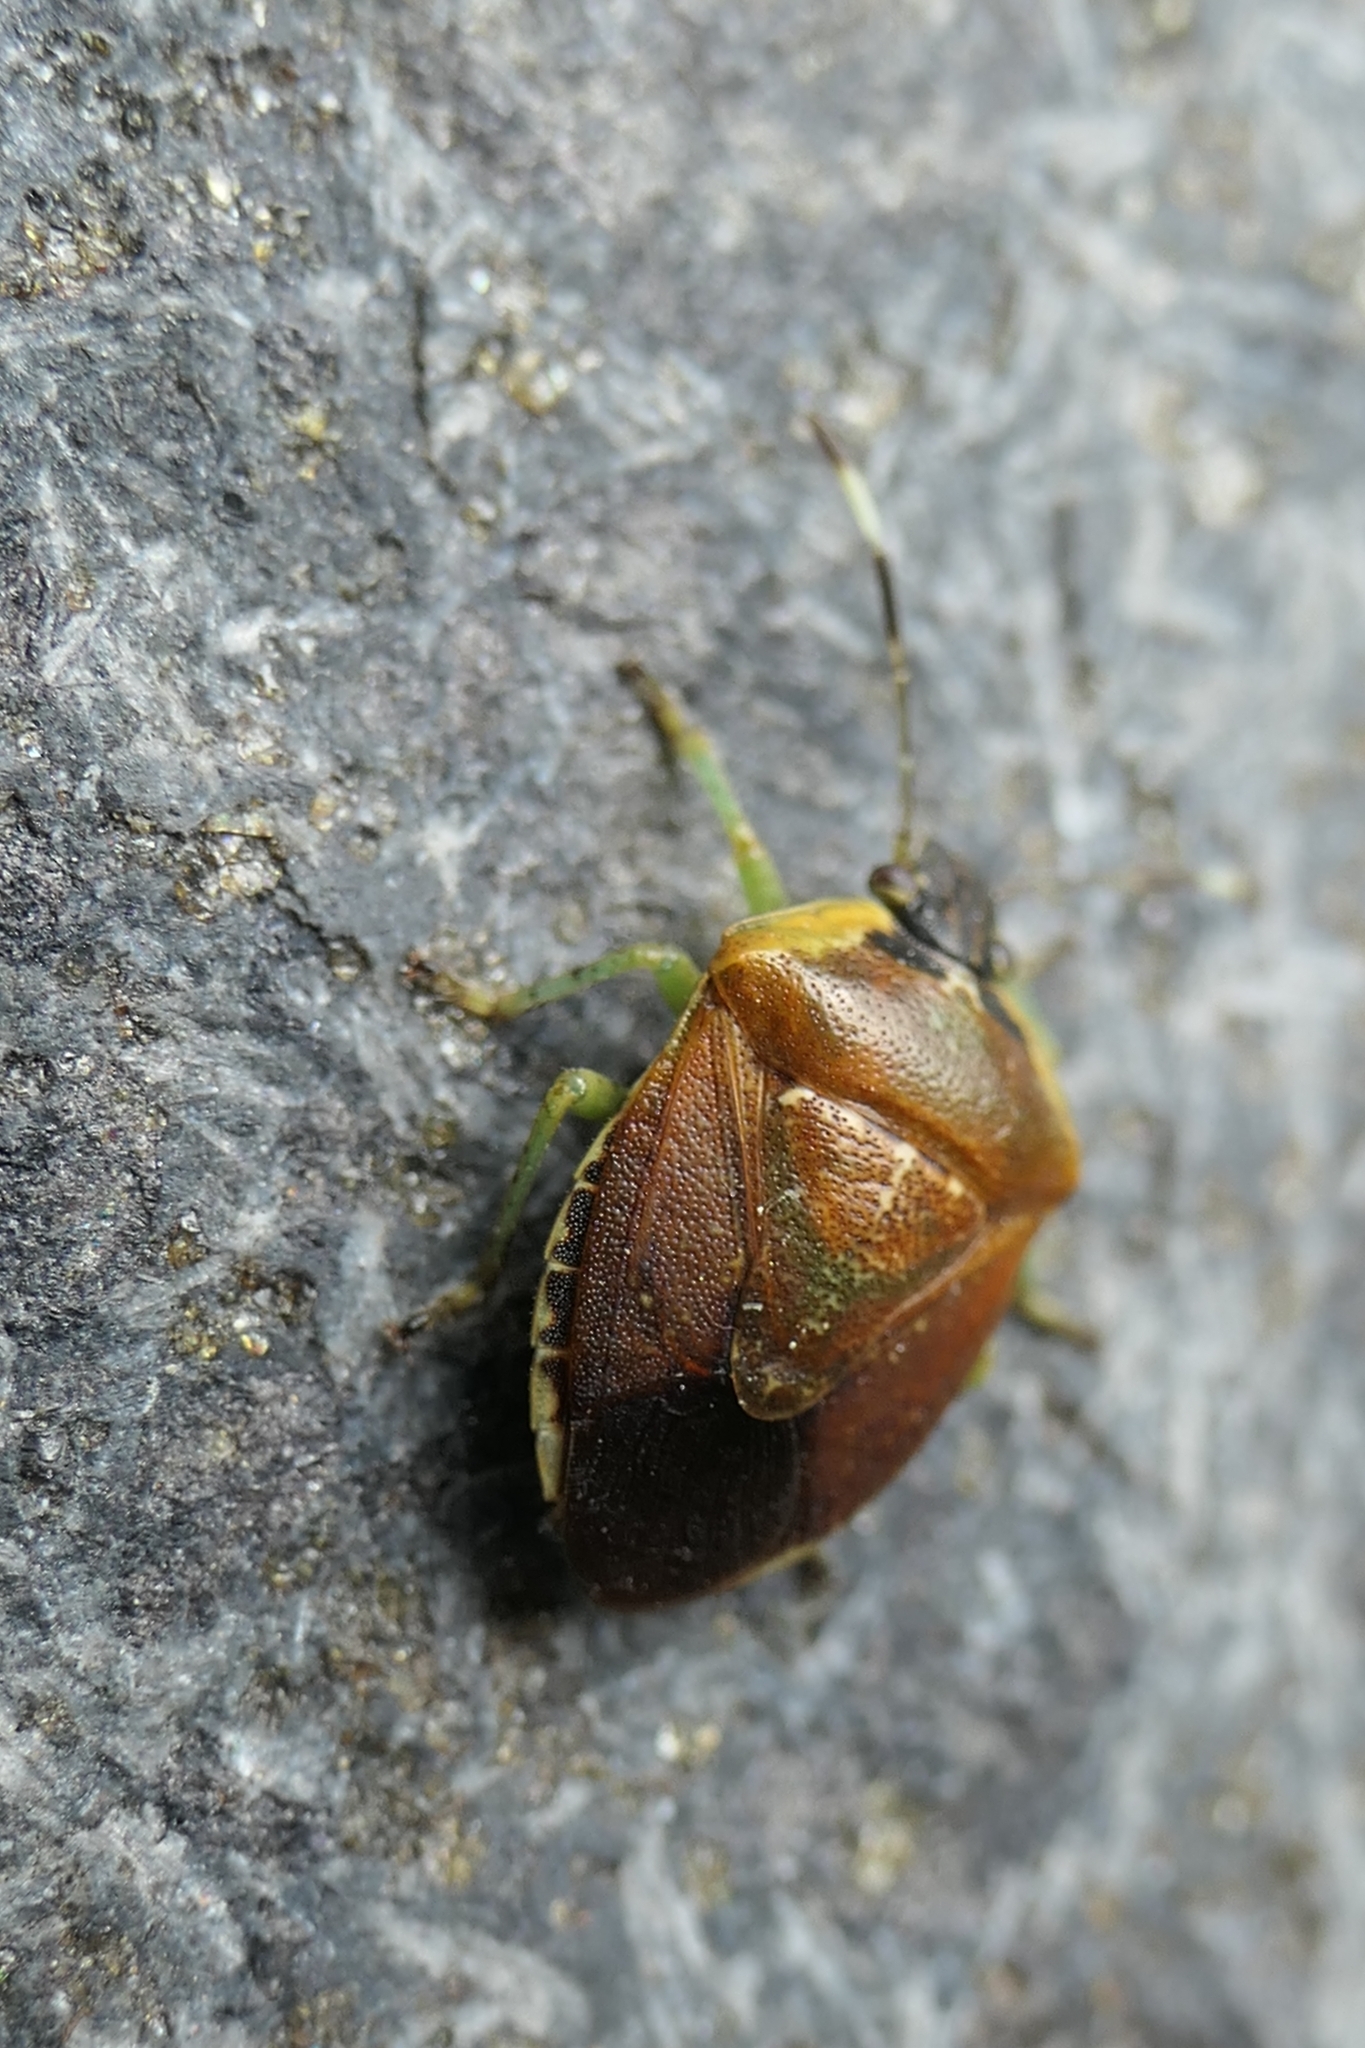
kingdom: Animalia
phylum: Arthropoda
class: Insecta
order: Hemiptera
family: Pentatomidae
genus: Monteithiella
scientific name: Monteithiella
